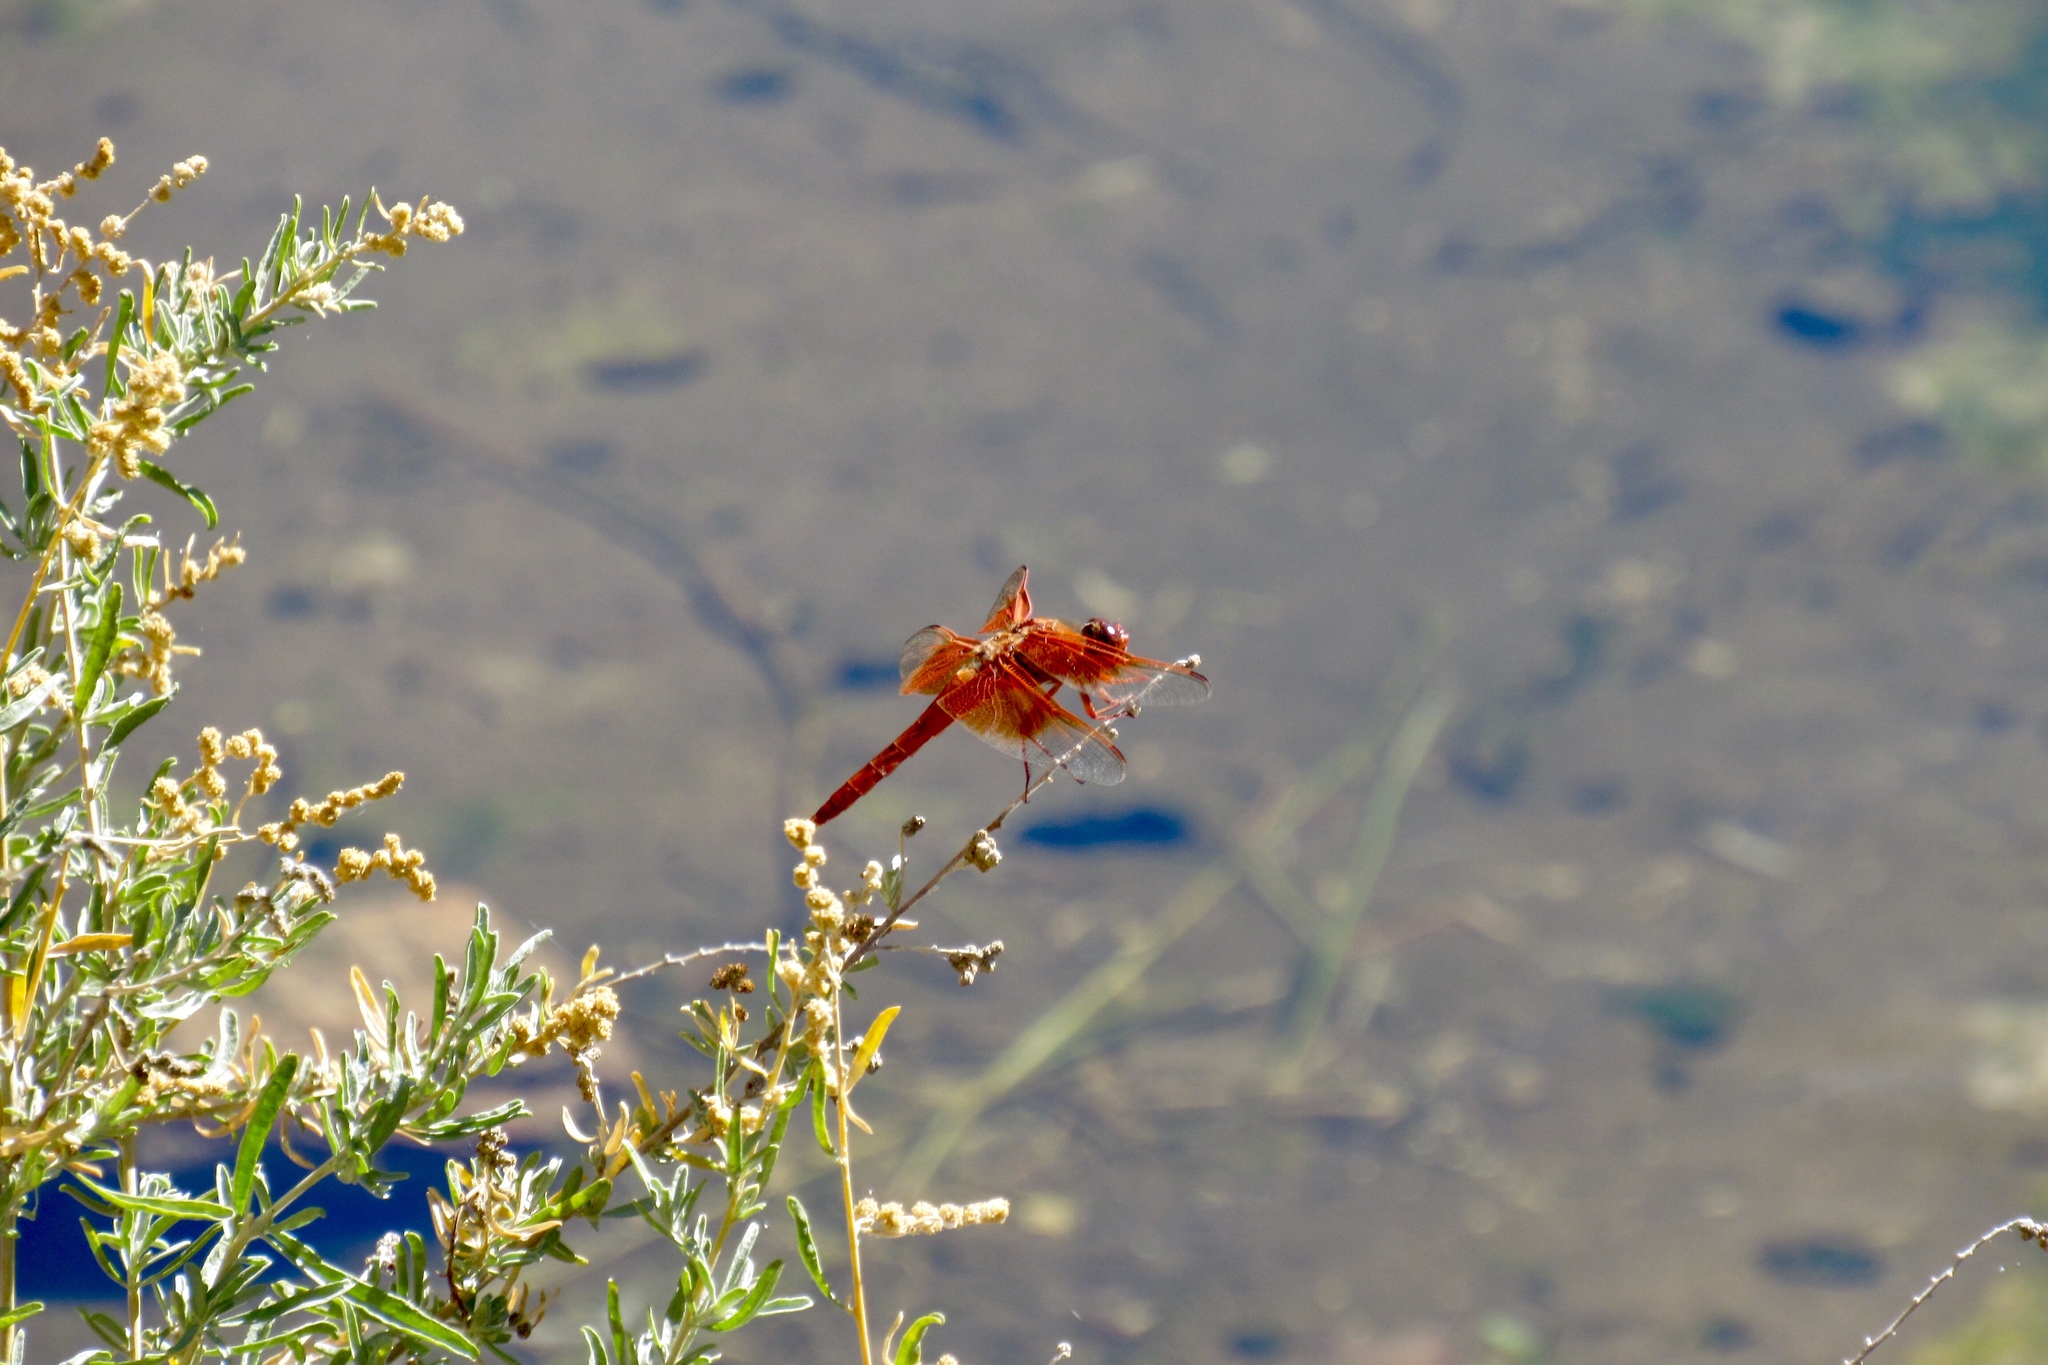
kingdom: Animalia
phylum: Arthropoda
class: Insecta
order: Odonata
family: Libellulidae
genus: Libellula
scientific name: Libellula saturata
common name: Flame skimmer
